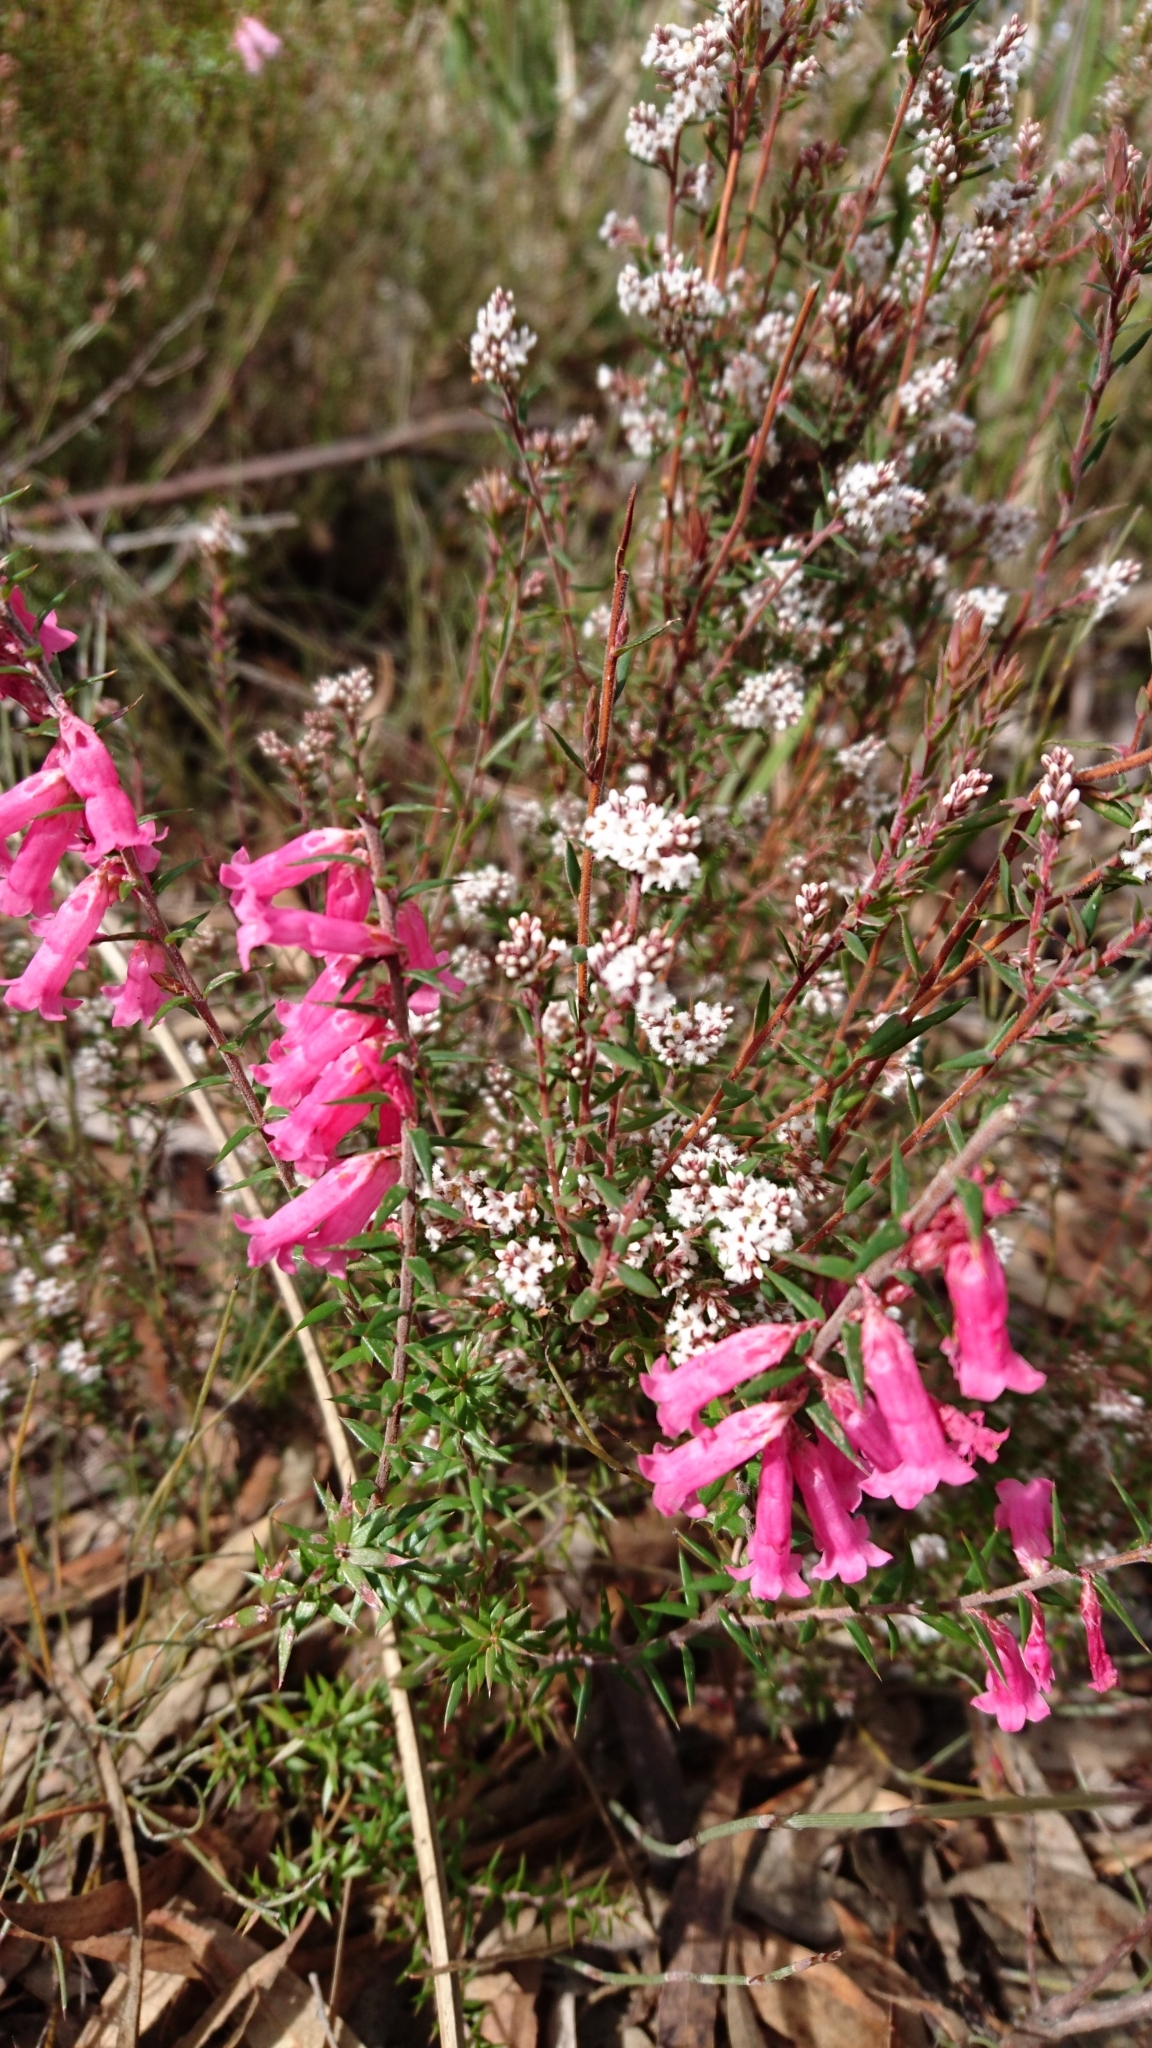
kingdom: Plantae
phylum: Tracheophyta
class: Magnoliopsida
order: Ericales
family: Ericaceae
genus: Epacris
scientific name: Epacris impressa
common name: Common-heath
